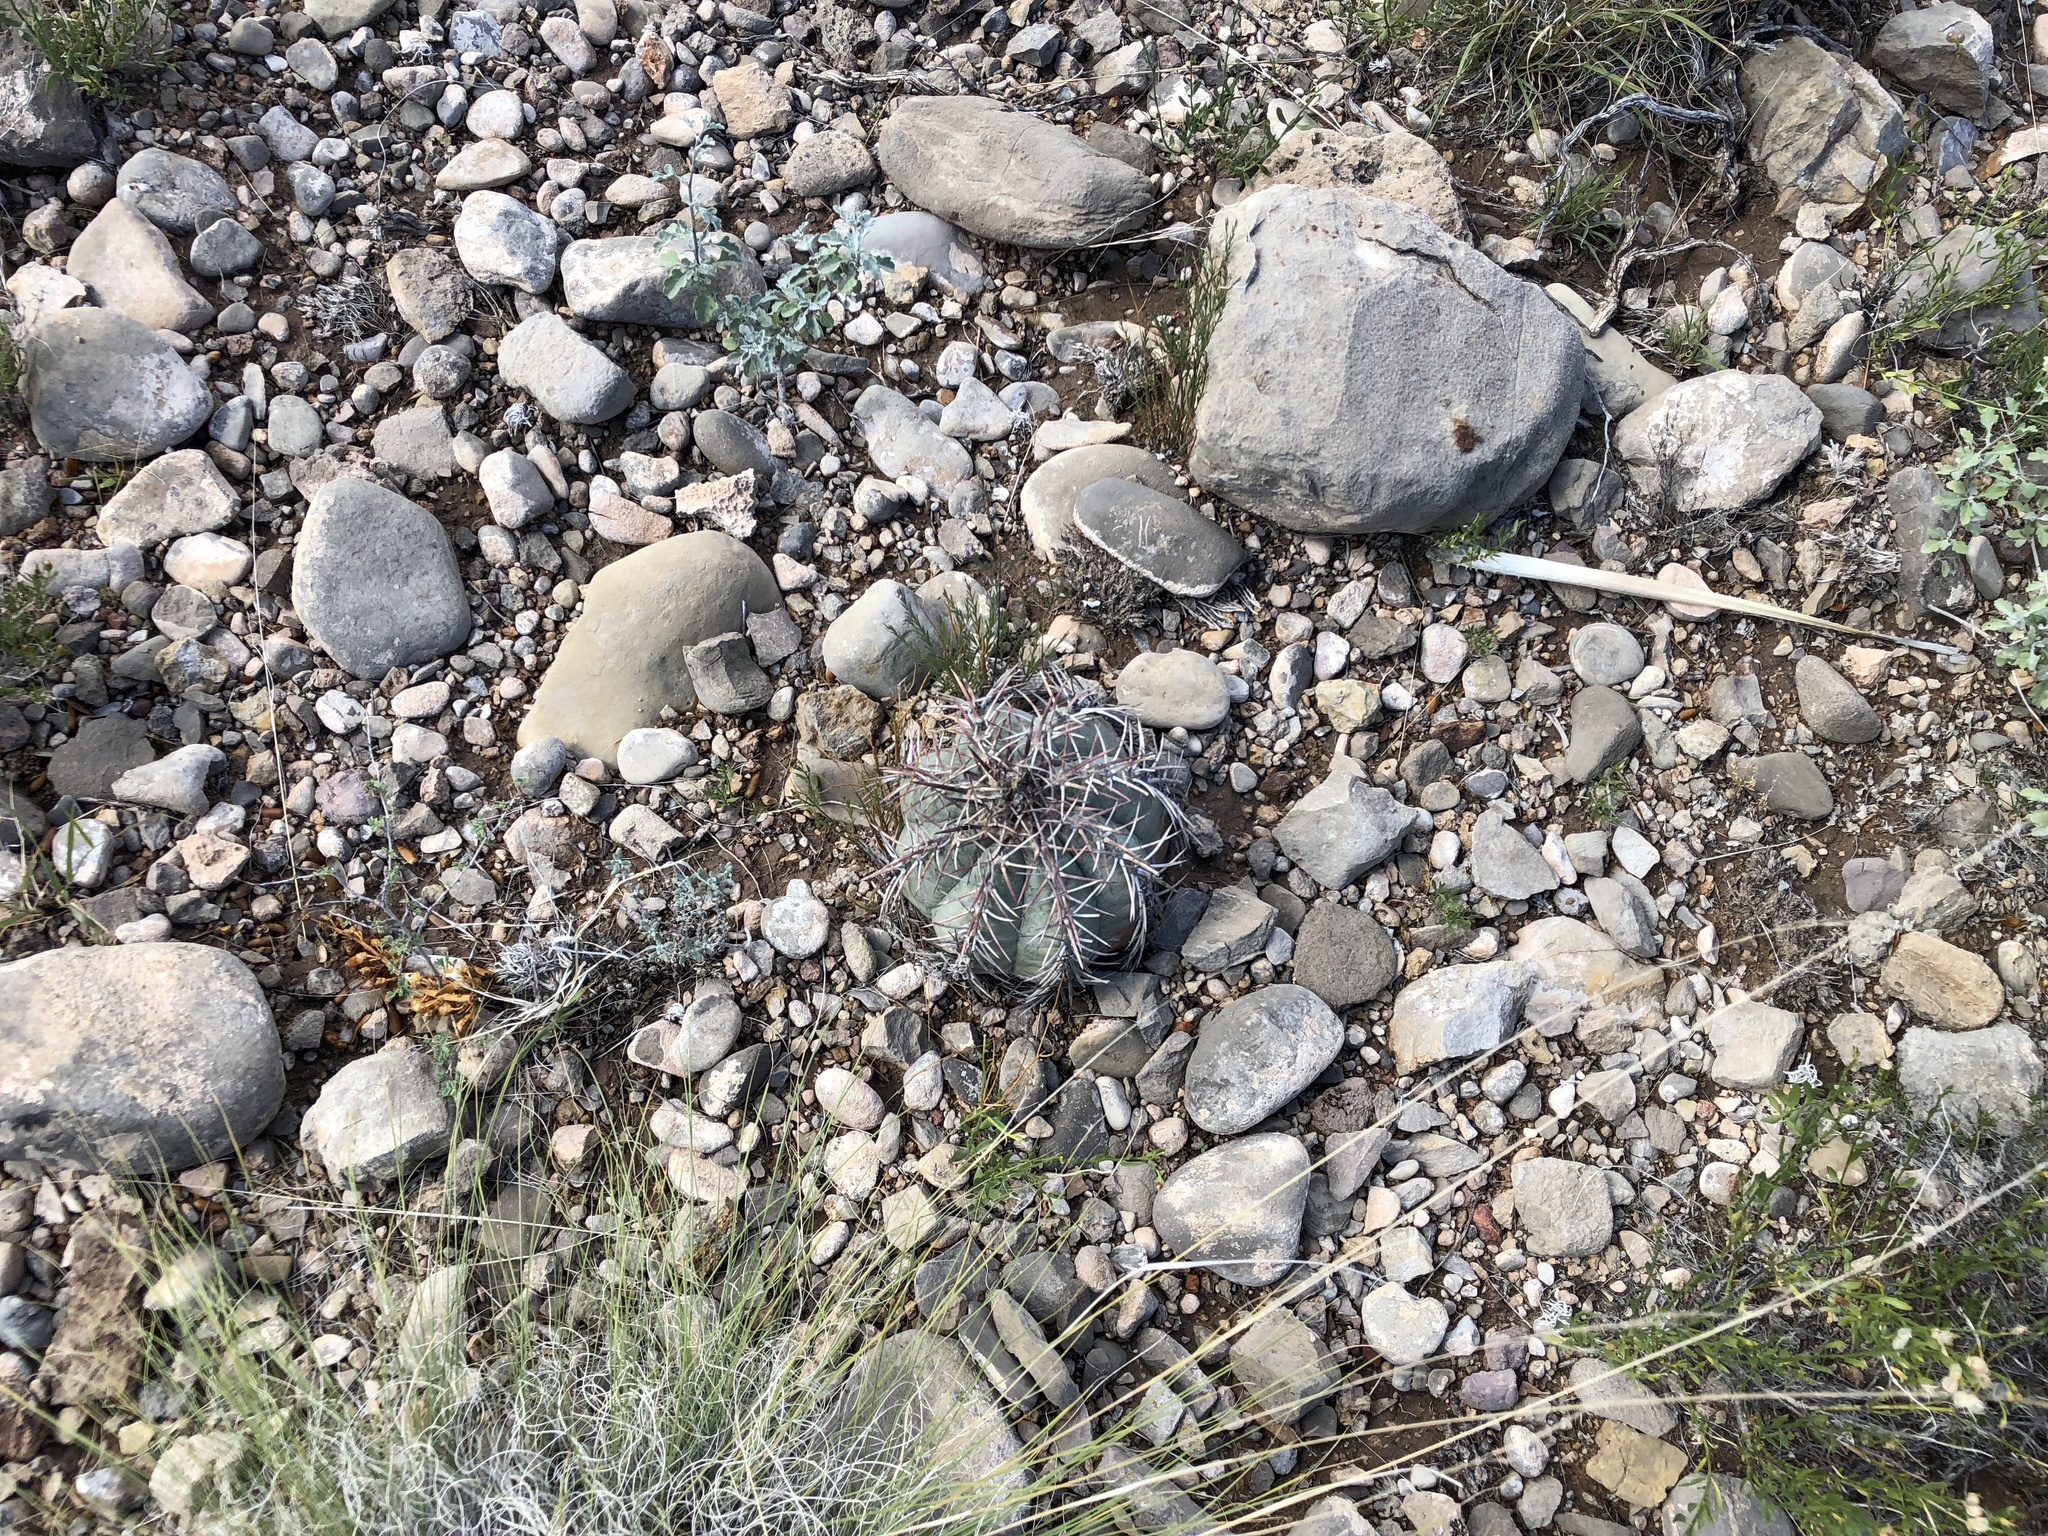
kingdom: Plantae
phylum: Tracheophyta
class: Magnoliopsida
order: Caryophyllales
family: Cactaceae
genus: Echinocactus
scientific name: Echinocactus horizonthalonius
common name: Devilshead
